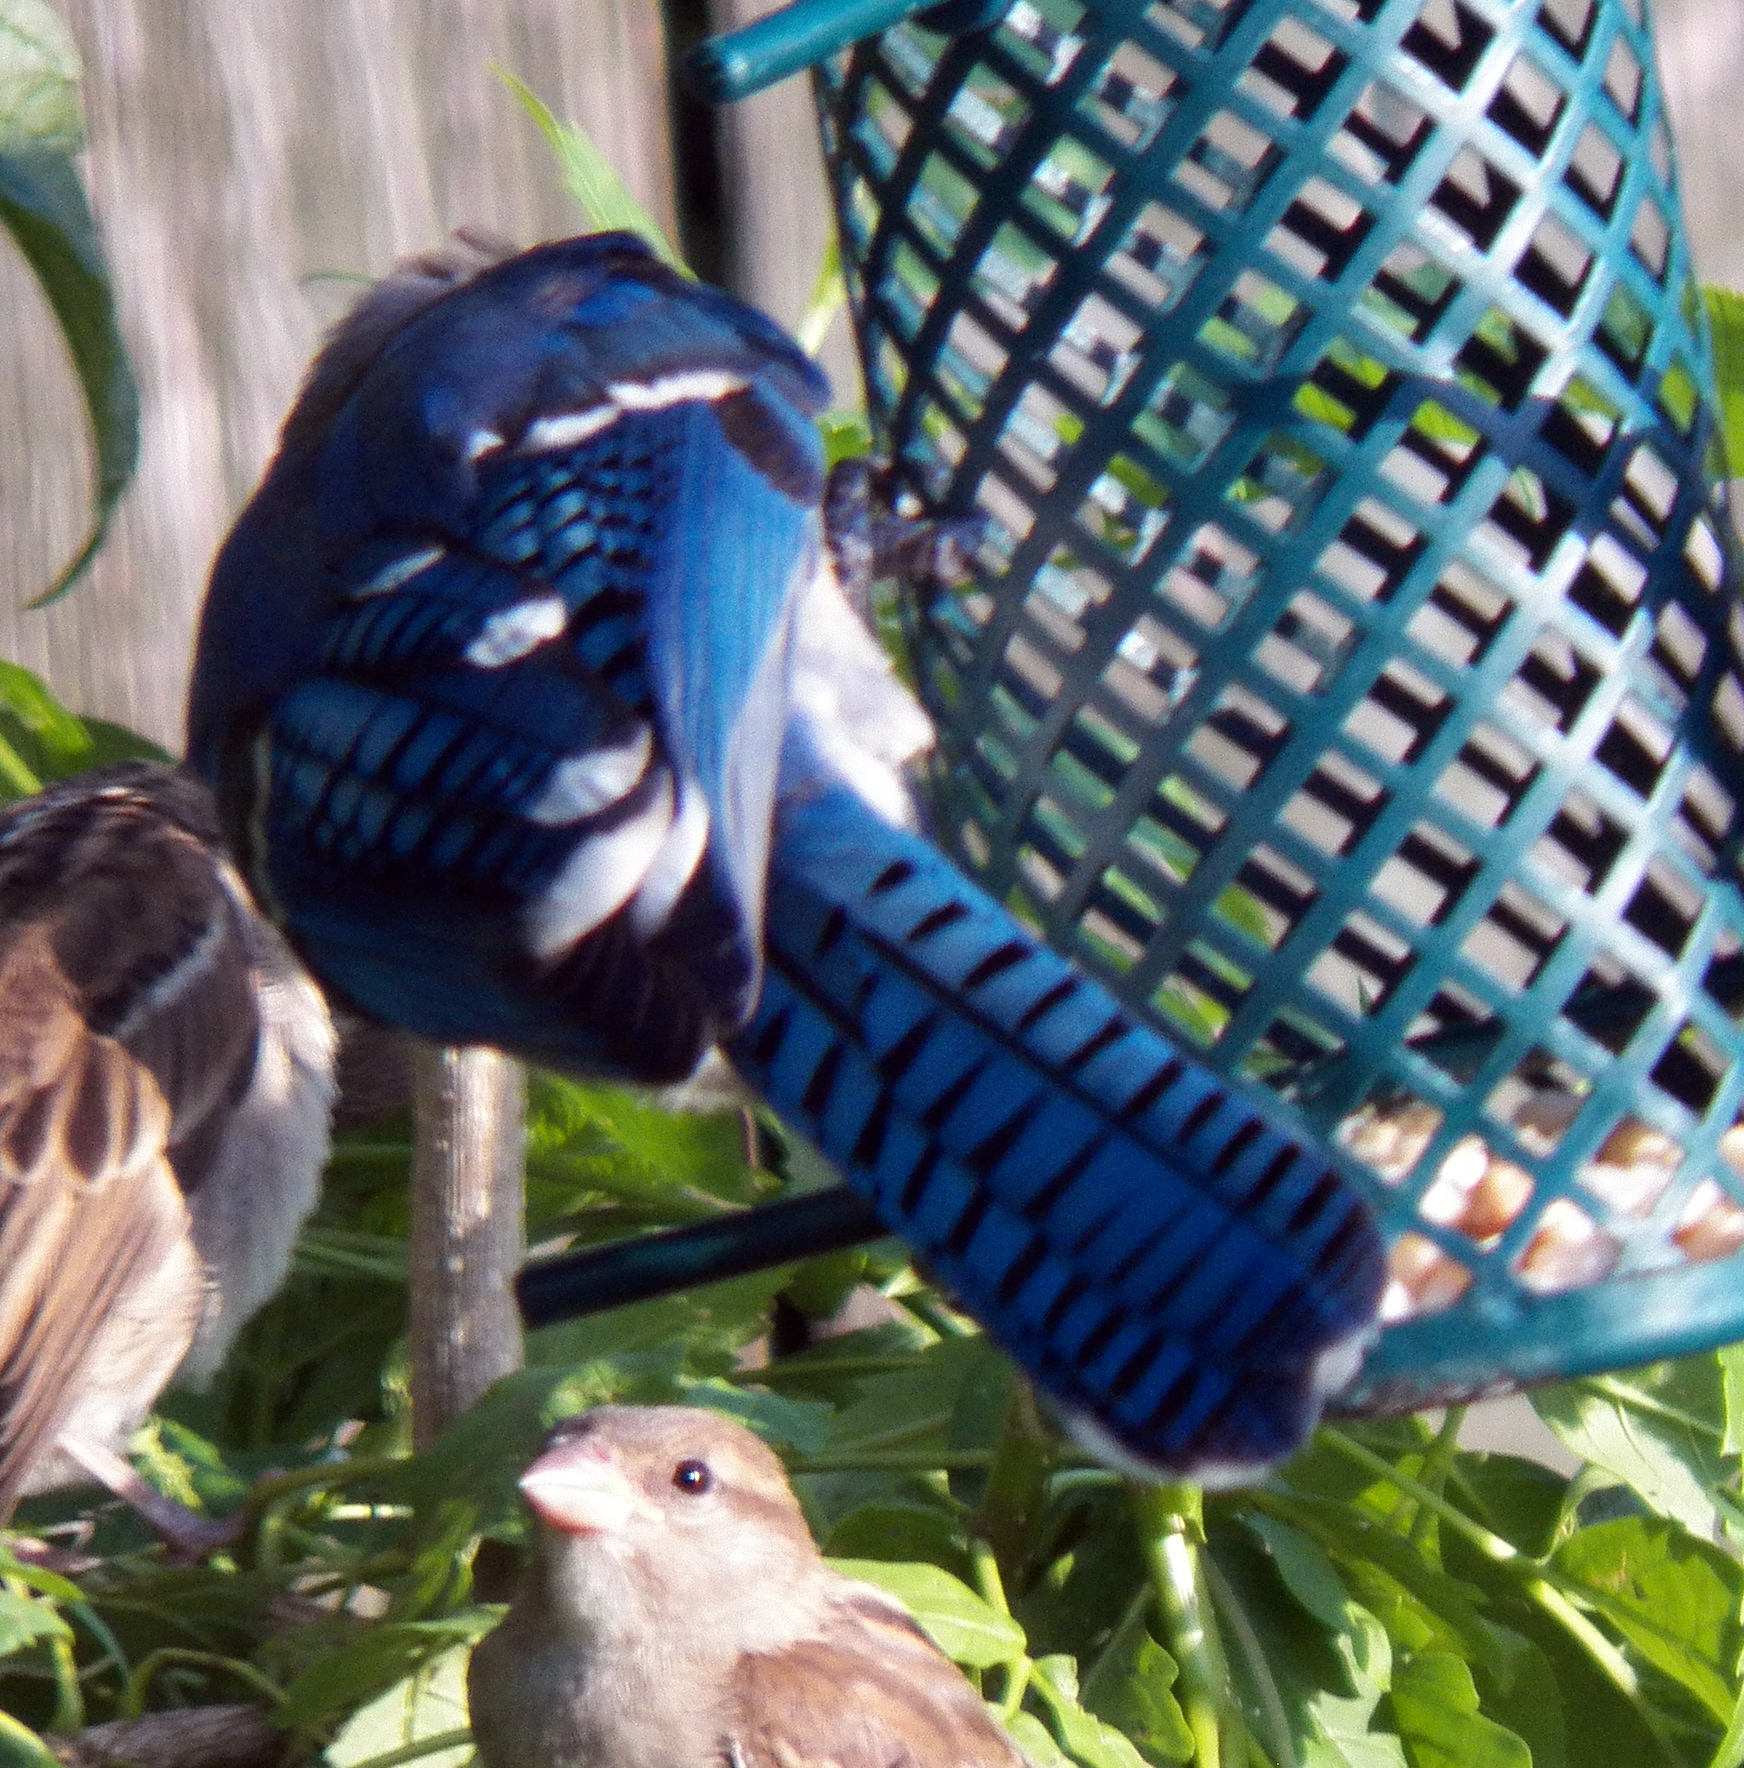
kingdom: Animalia
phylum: Chordata
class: Aves
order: Passeriformes
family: Corvidae
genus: Cyanocitta
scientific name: Cyanocitta cristata
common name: Blue jay
